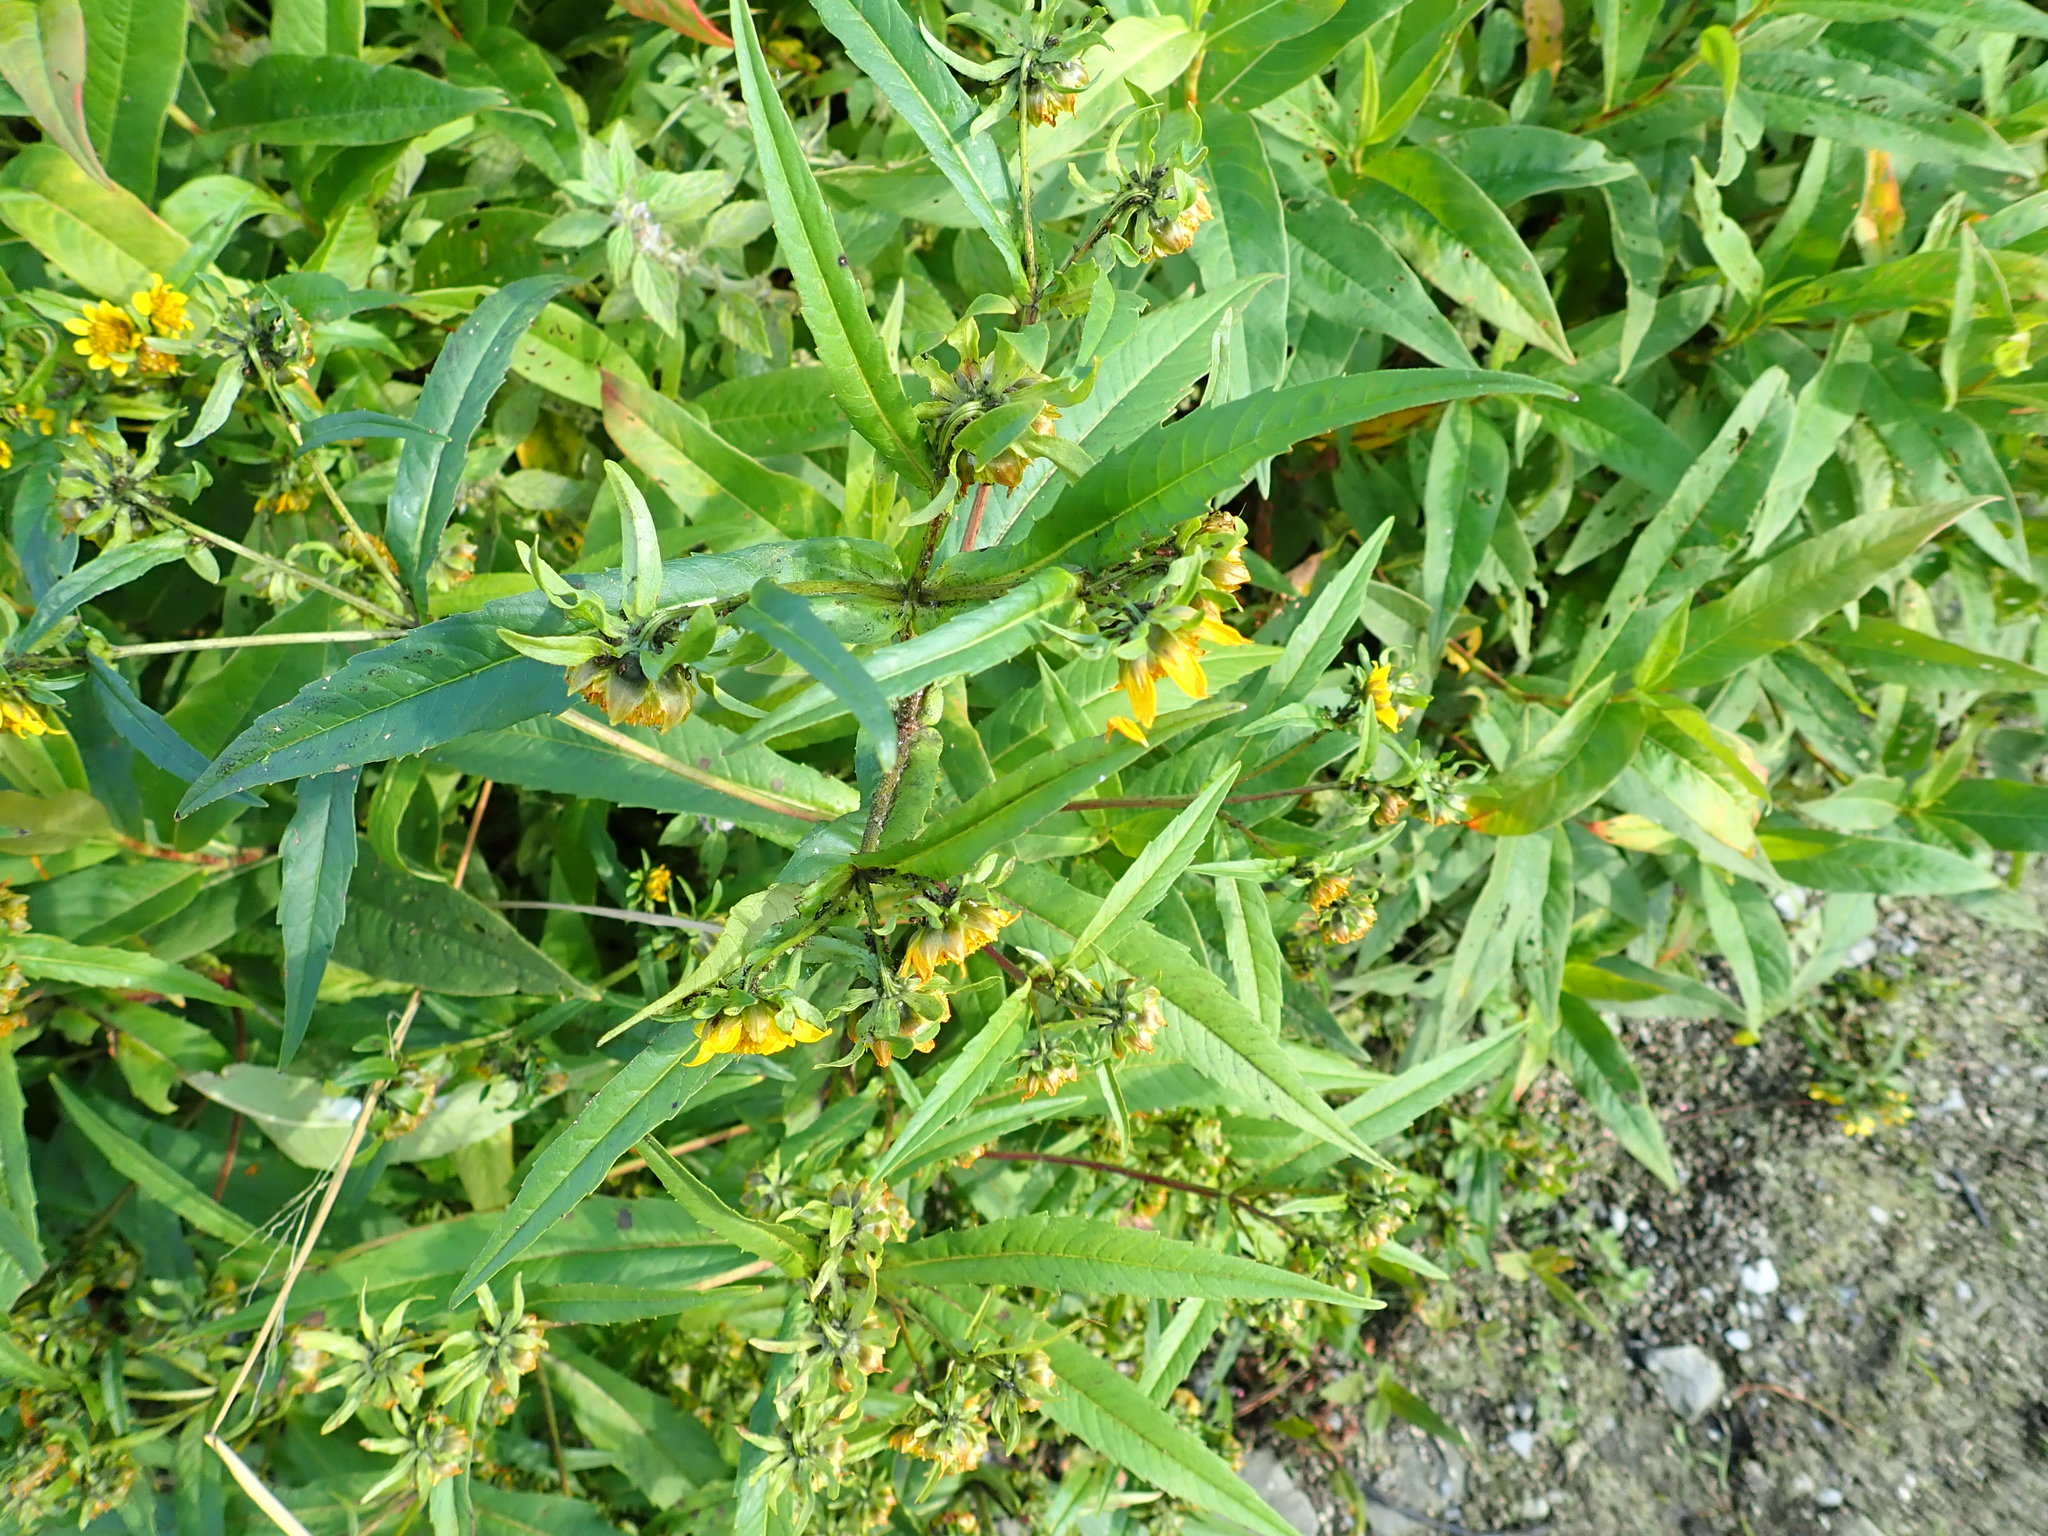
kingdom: Plantae
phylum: Tracheophyta
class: Magnoliopsida
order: Asterales
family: Asteraceae
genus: Bidens
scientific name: Bidens cernua
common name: Nodding bur-marigold
